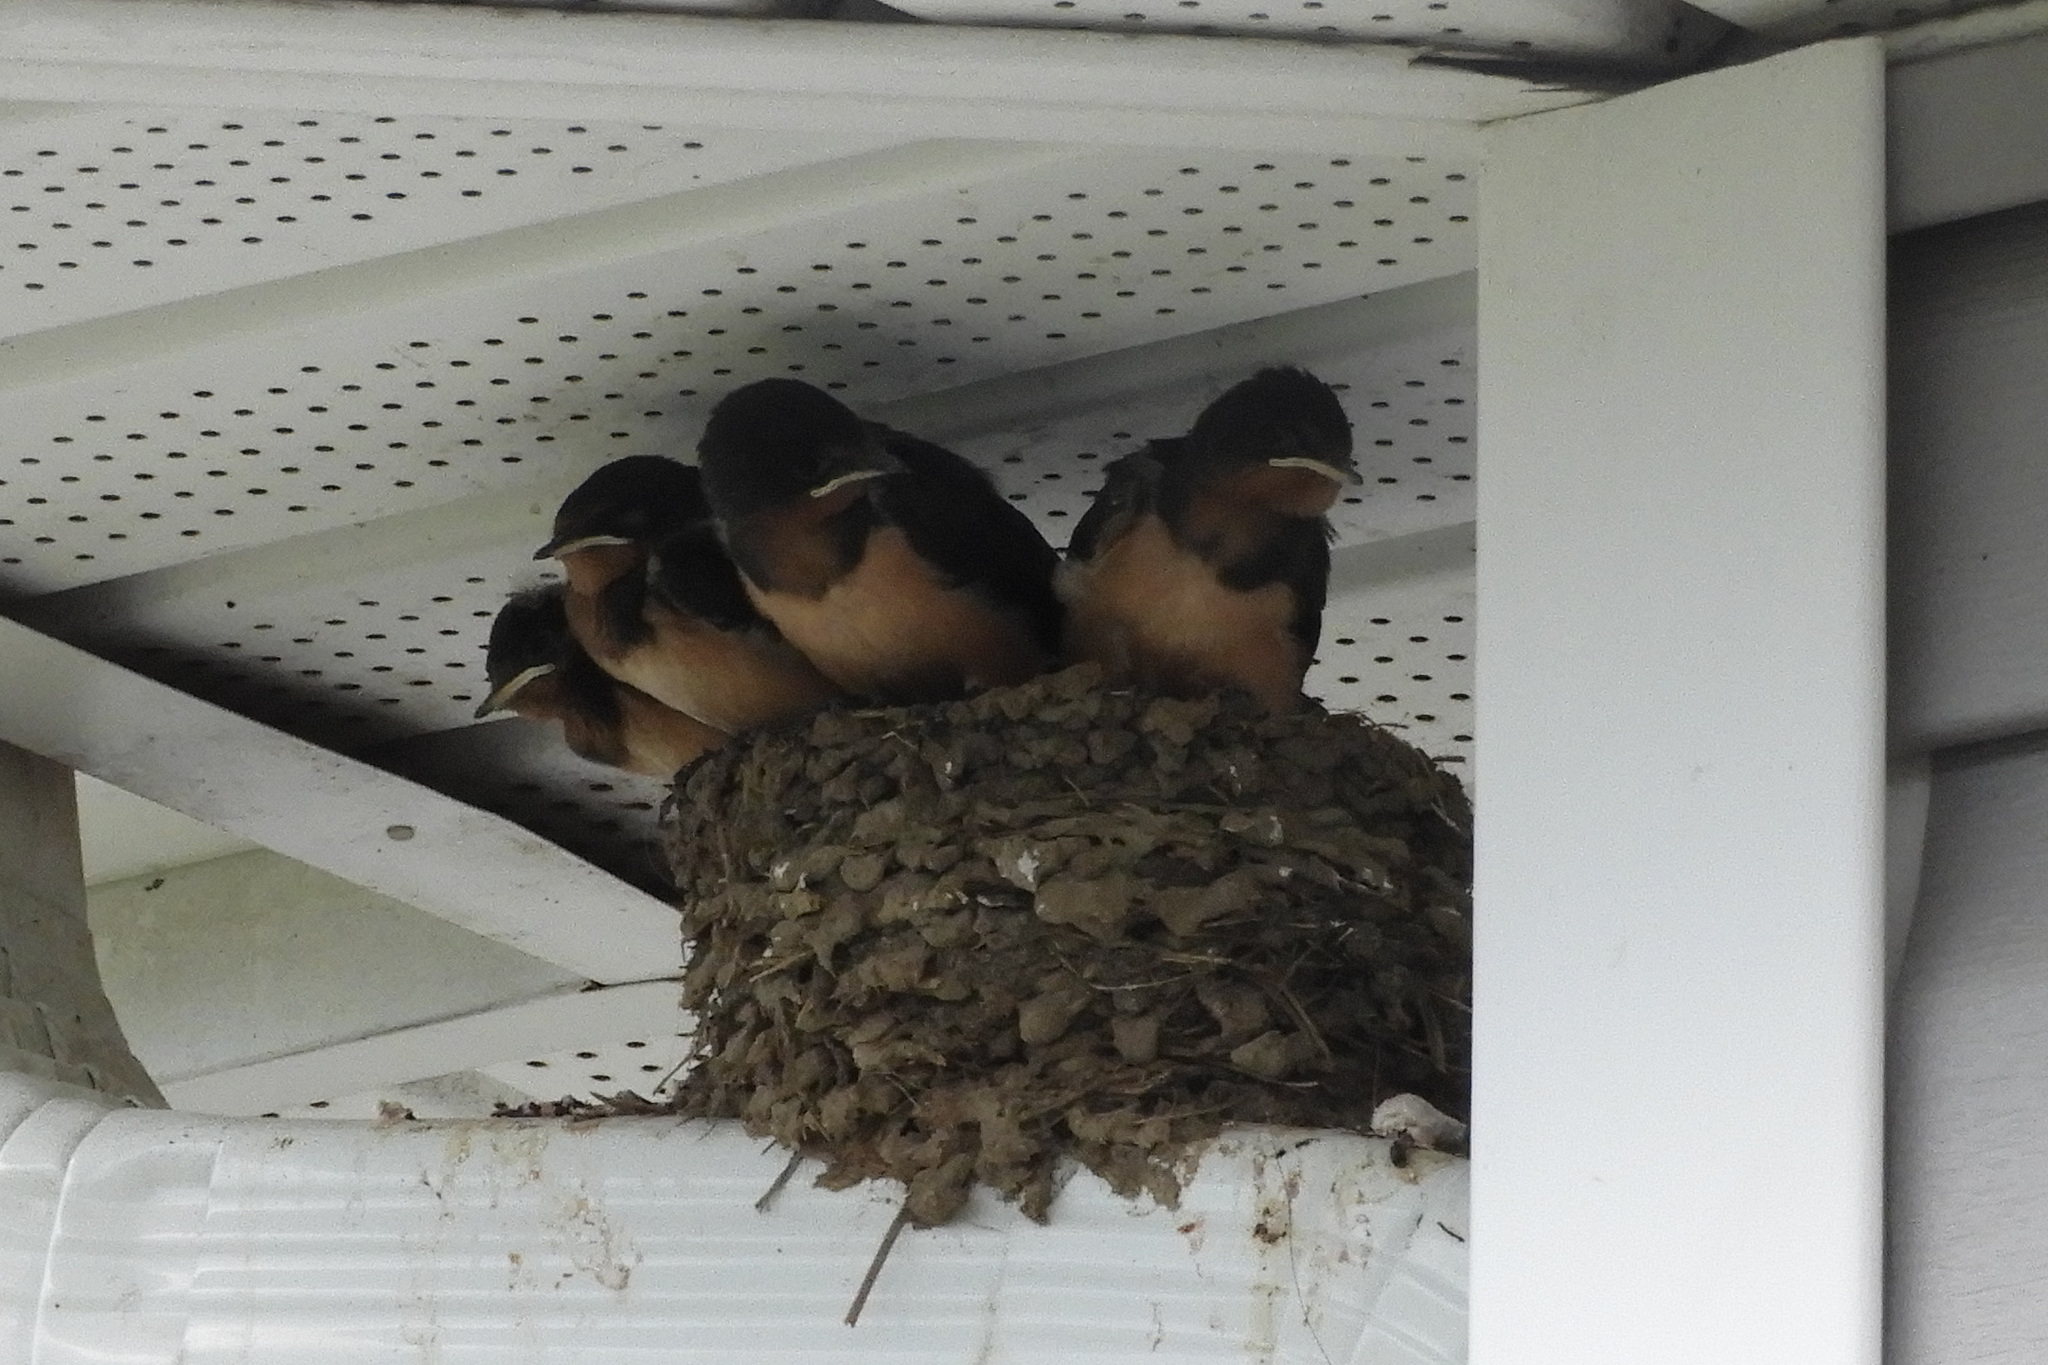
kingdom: Animalia
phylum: Chordata
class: Aves
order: Passeriformes
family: Hirundinidae
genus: Hirundo
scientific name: Hirundo rustica
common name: Barn swallow
